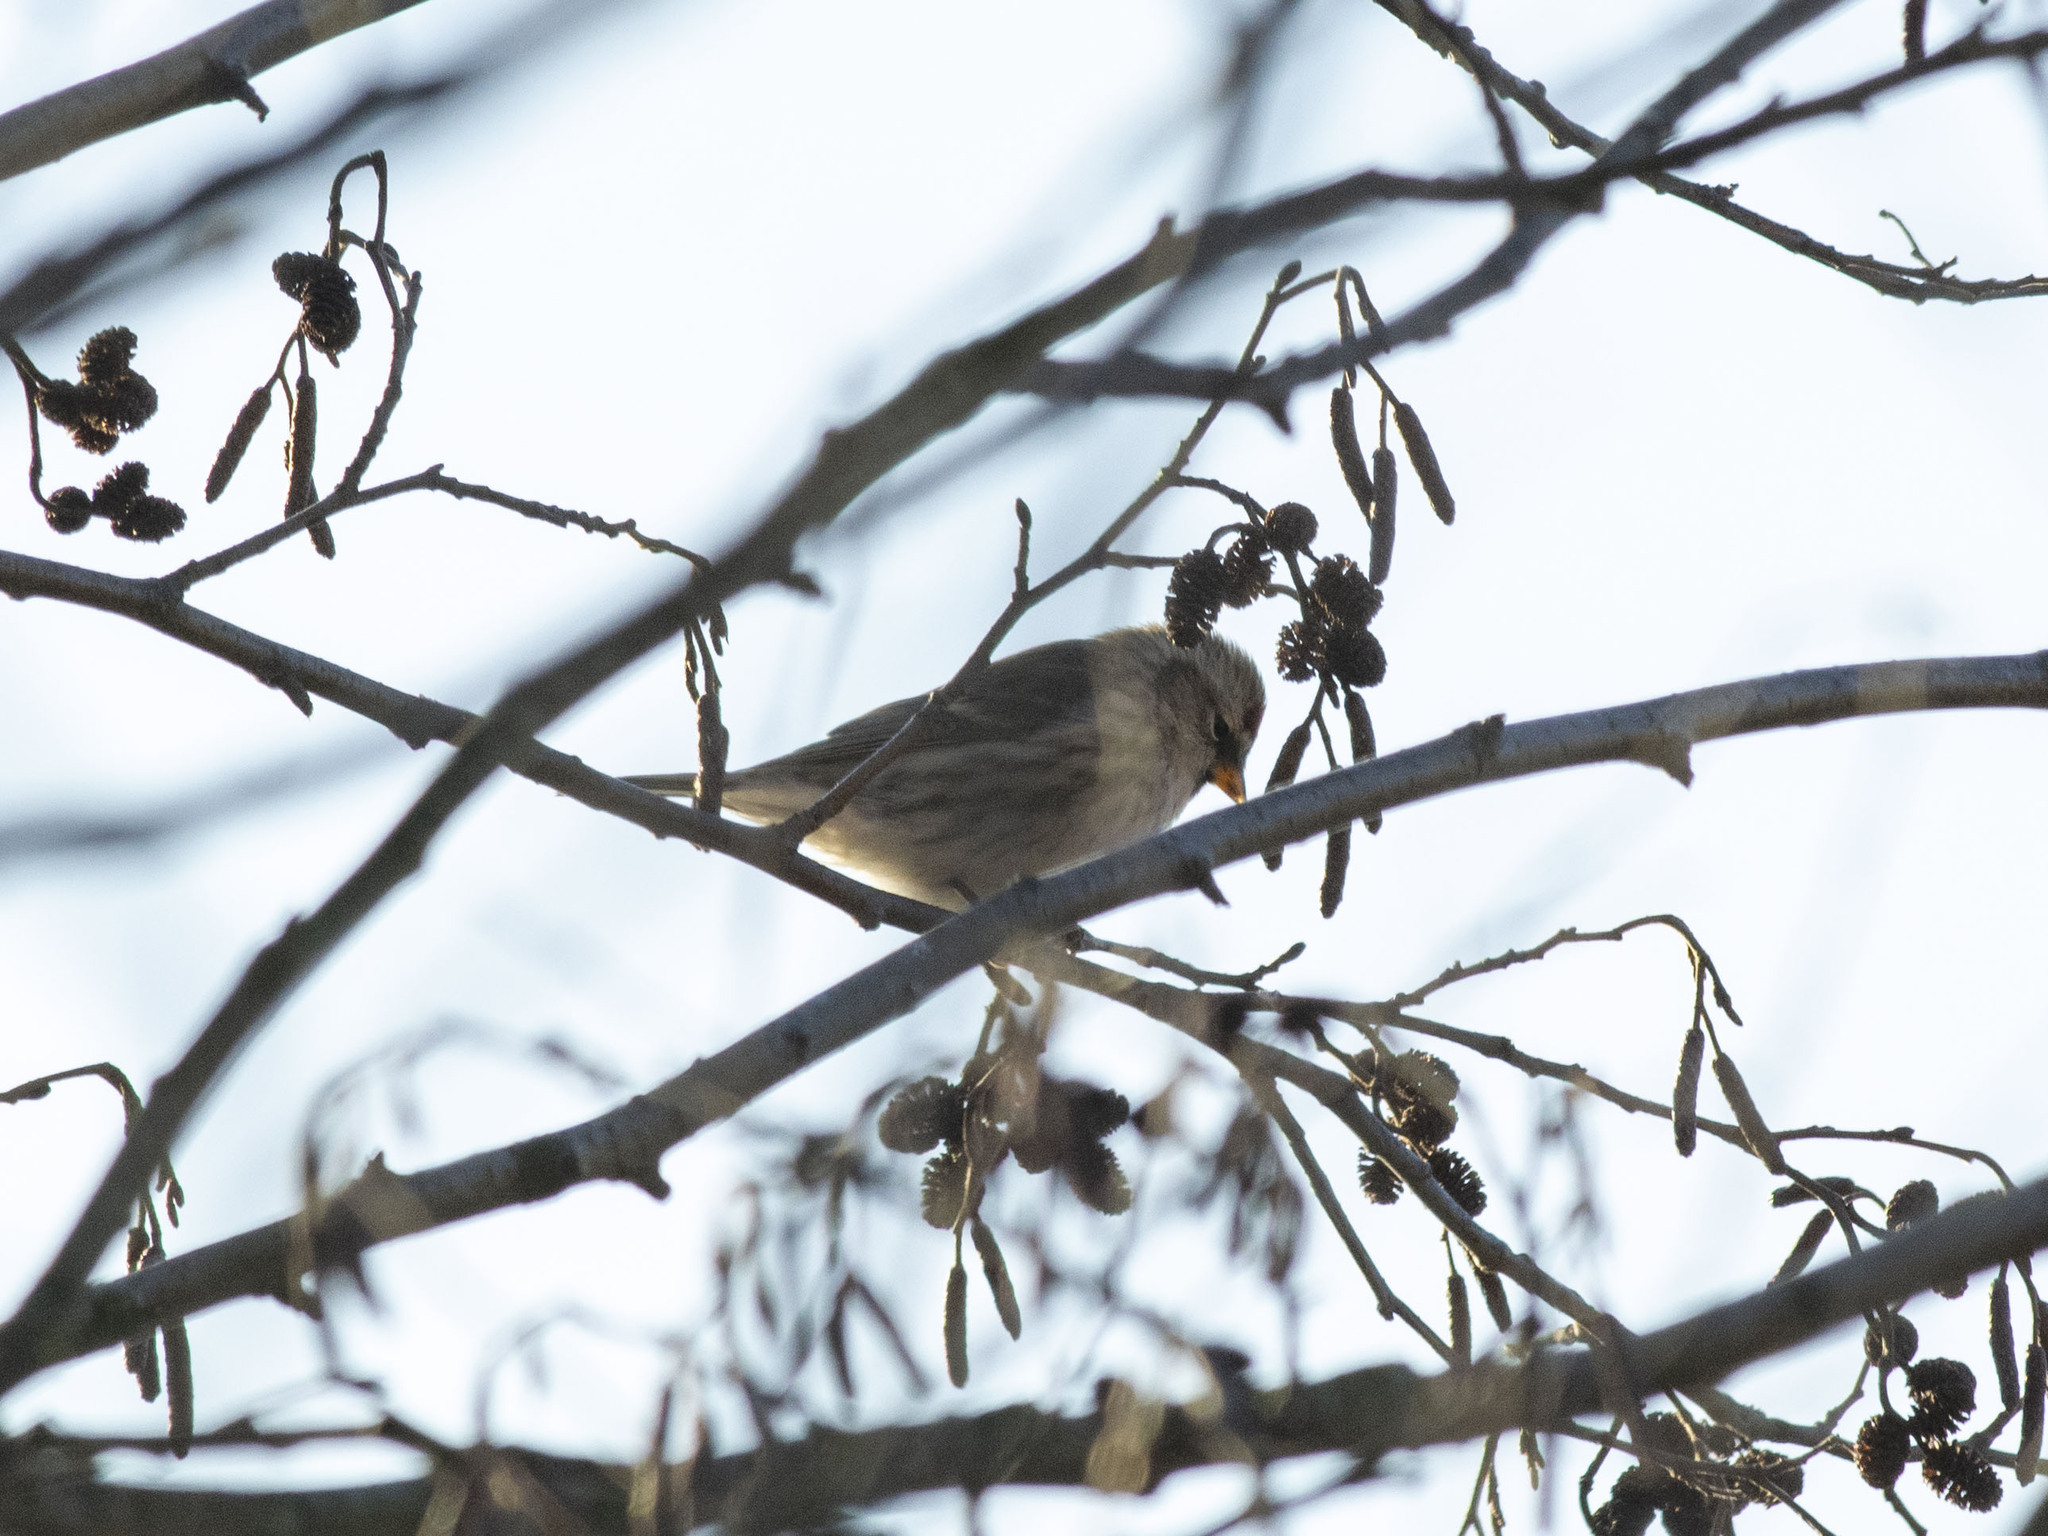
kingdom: Animalia
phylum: Chordata
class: Aves
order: Passeriformes
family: Fringillidae
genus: Acanthis
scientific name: Acanthis flammea
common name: Common redpoll
